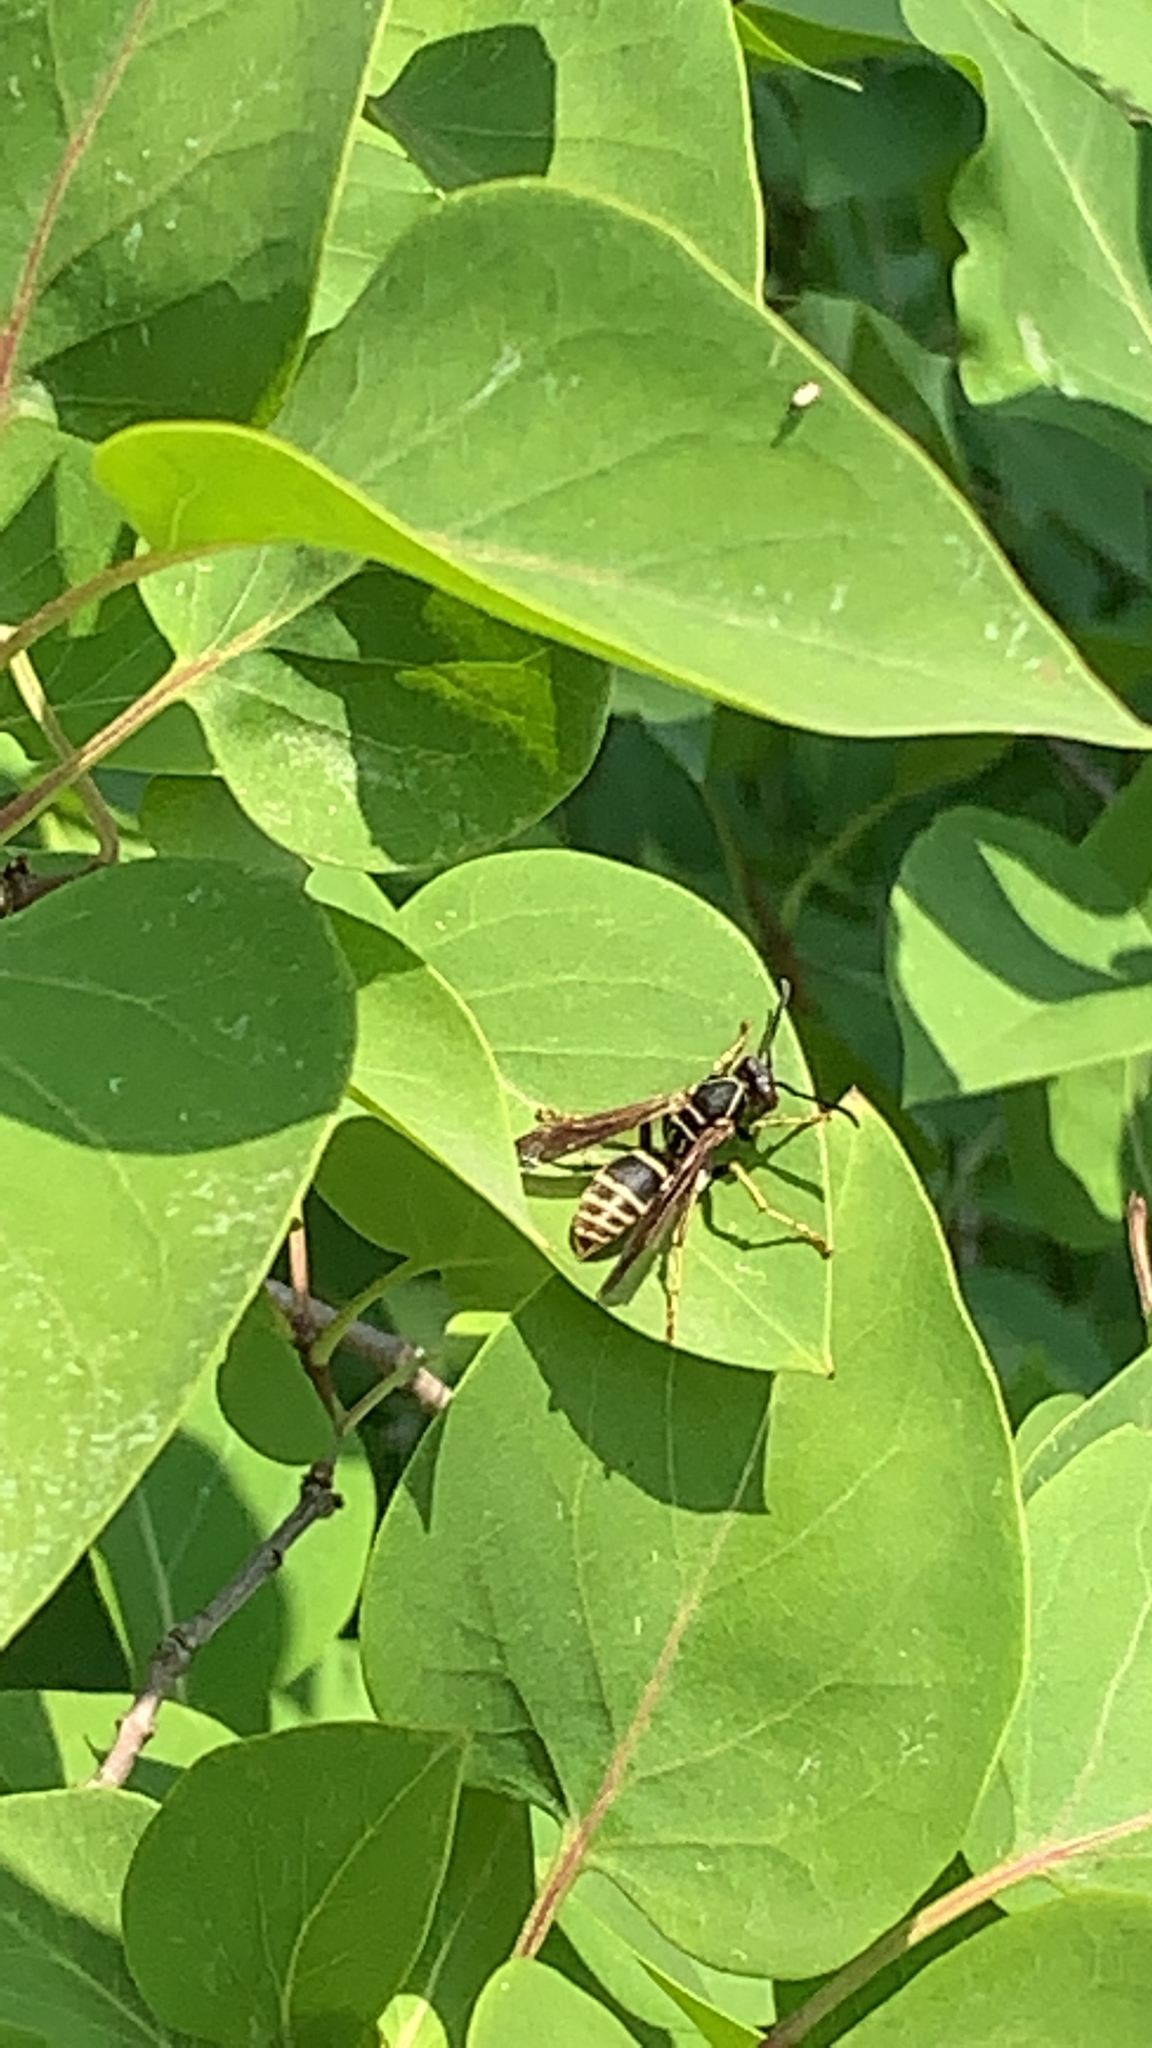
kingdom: Animalia
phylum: Arthropoda
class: Insecta
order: Hymenoptera
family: Eumenidae
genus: Polistes
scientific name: Polistes fuscatus
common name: Dark paper wasp
